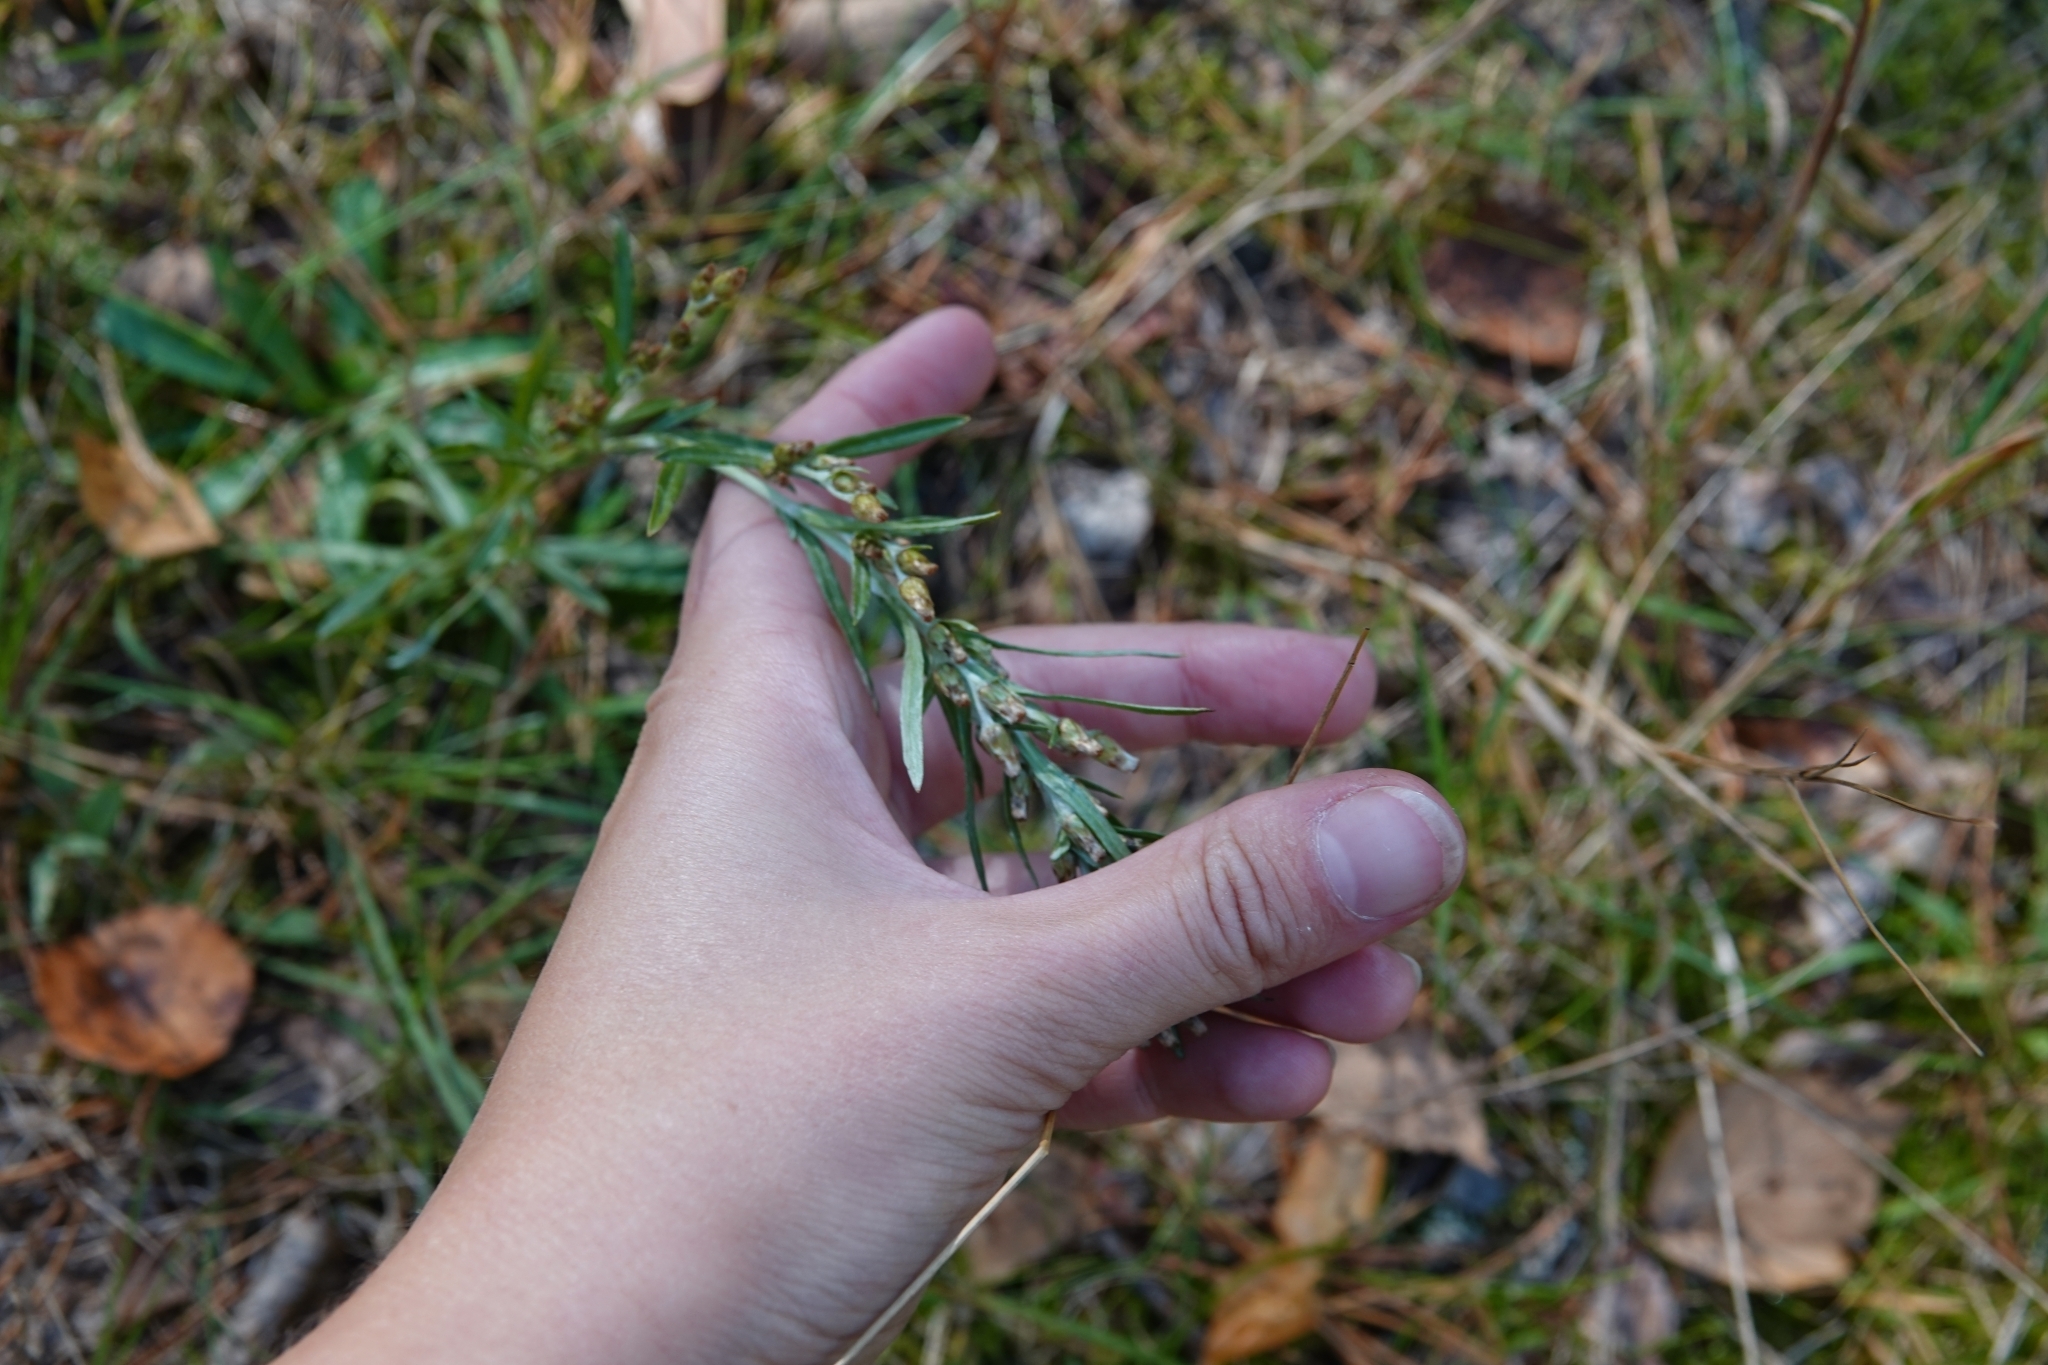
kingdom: Plantae
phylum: Tracheophyta
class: Magnoliopsida
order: Asterales
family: Asteraceae
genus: Omalotheca
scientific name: Omalotheca sylvatica
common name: Heath cudweed
